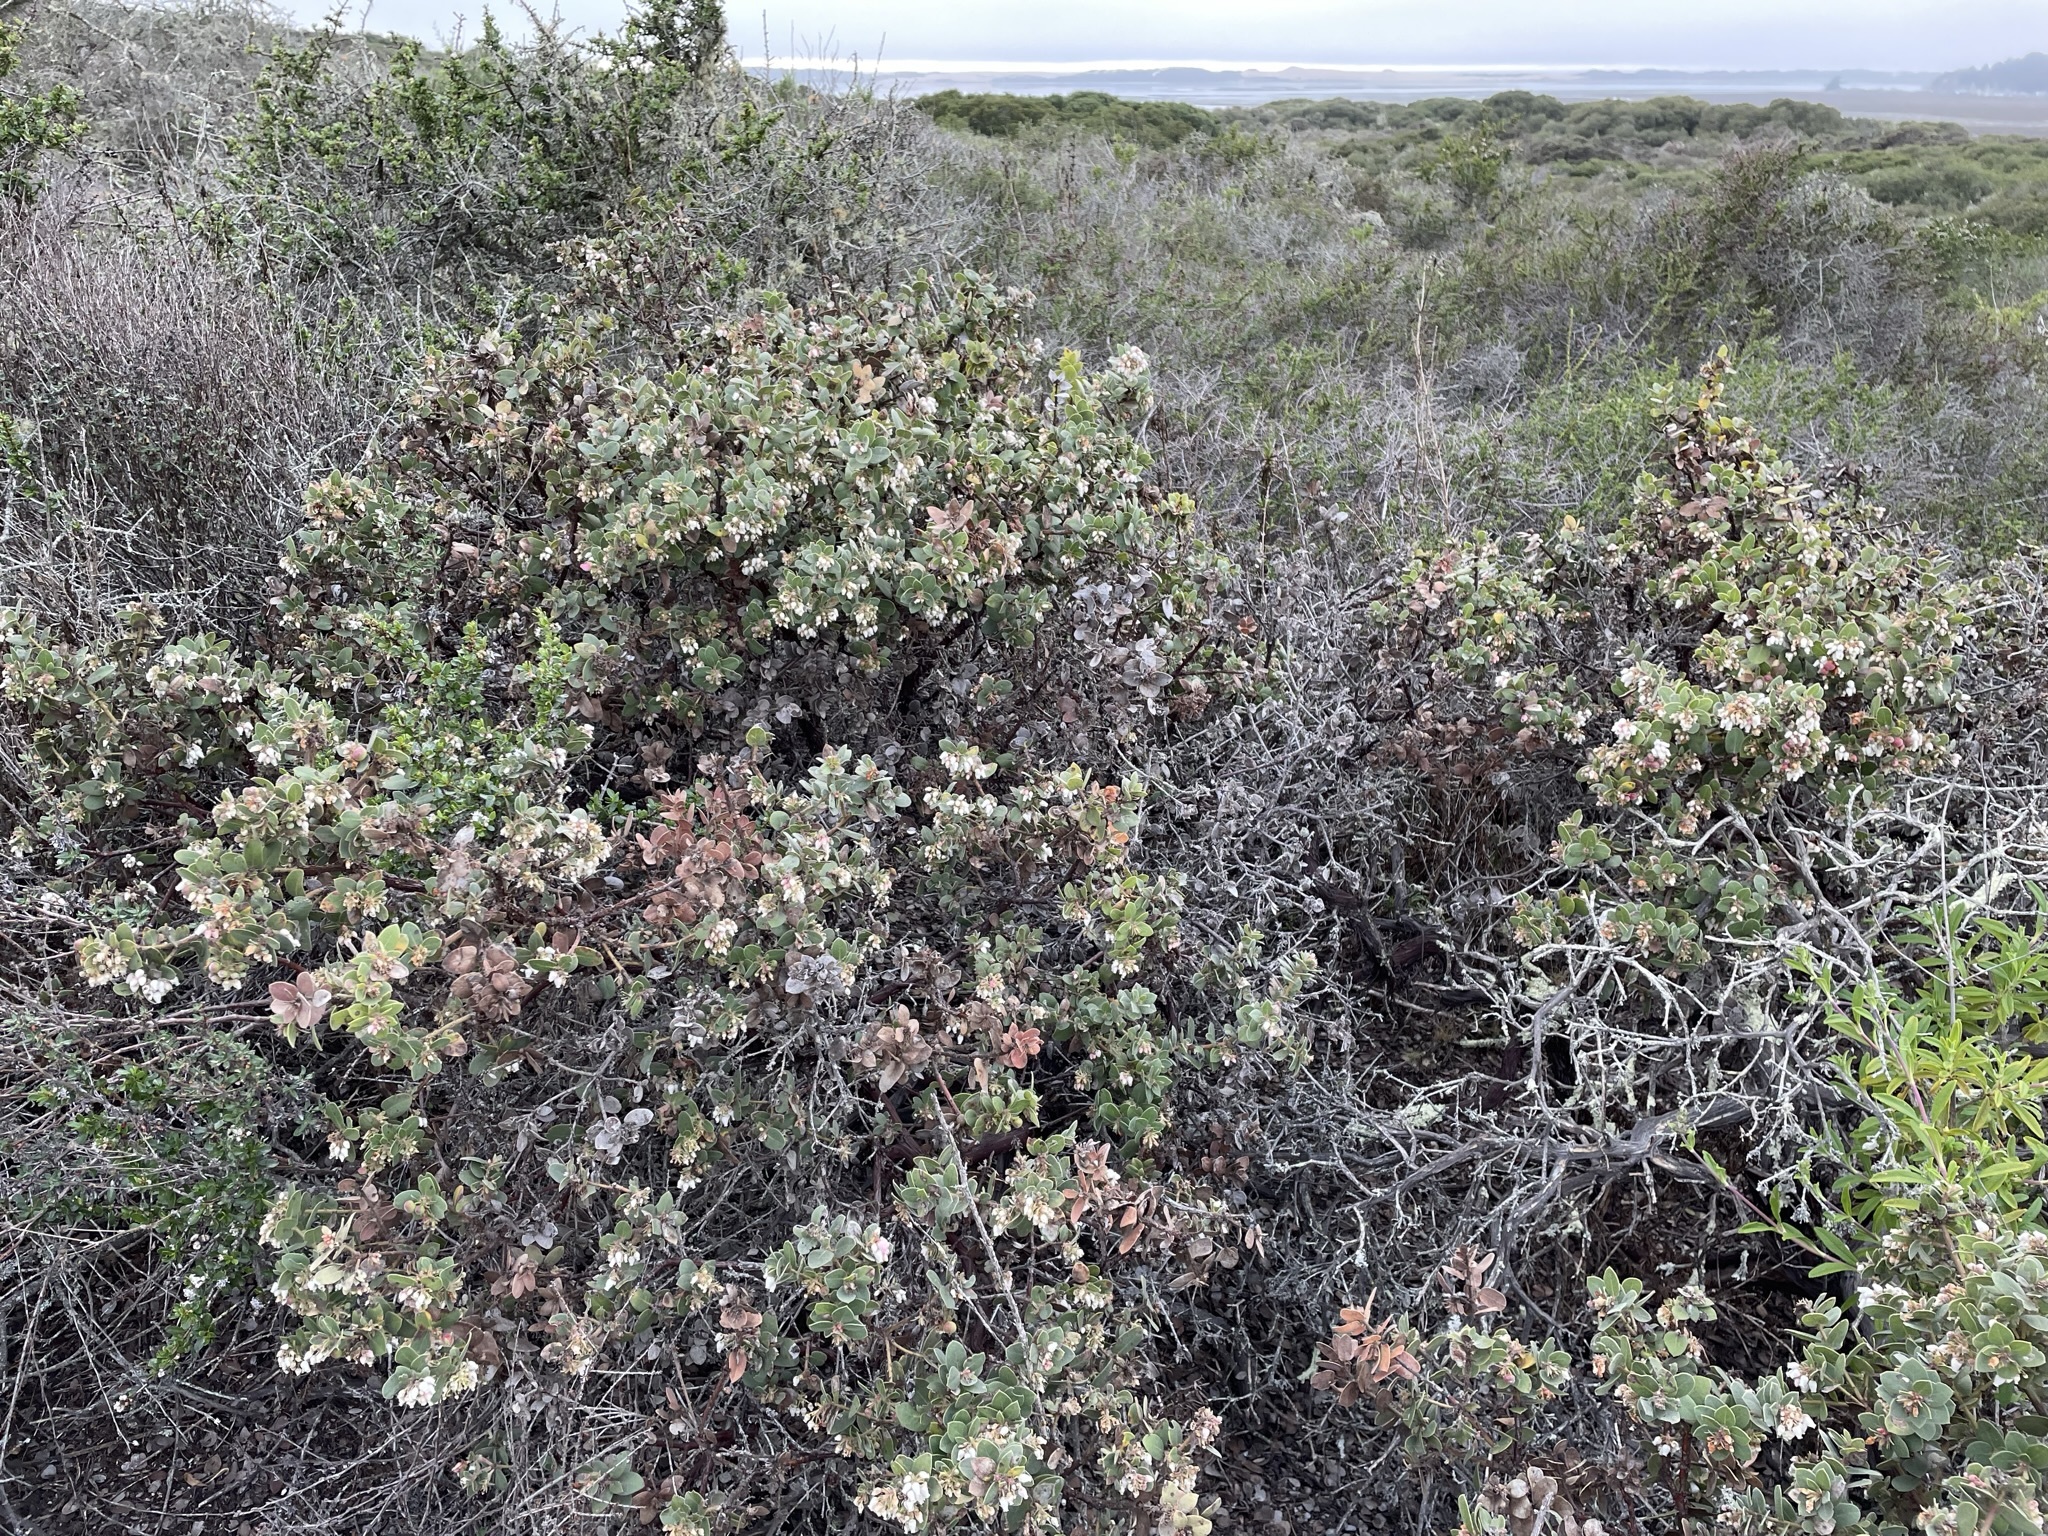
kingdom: Plantae
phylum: Tracheophyta
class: Magnoliopsida
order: Ericales
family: Ericaceae
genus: Arctostaphylos
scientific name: Arctostaphylos morroensis
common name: Morro manzanita
